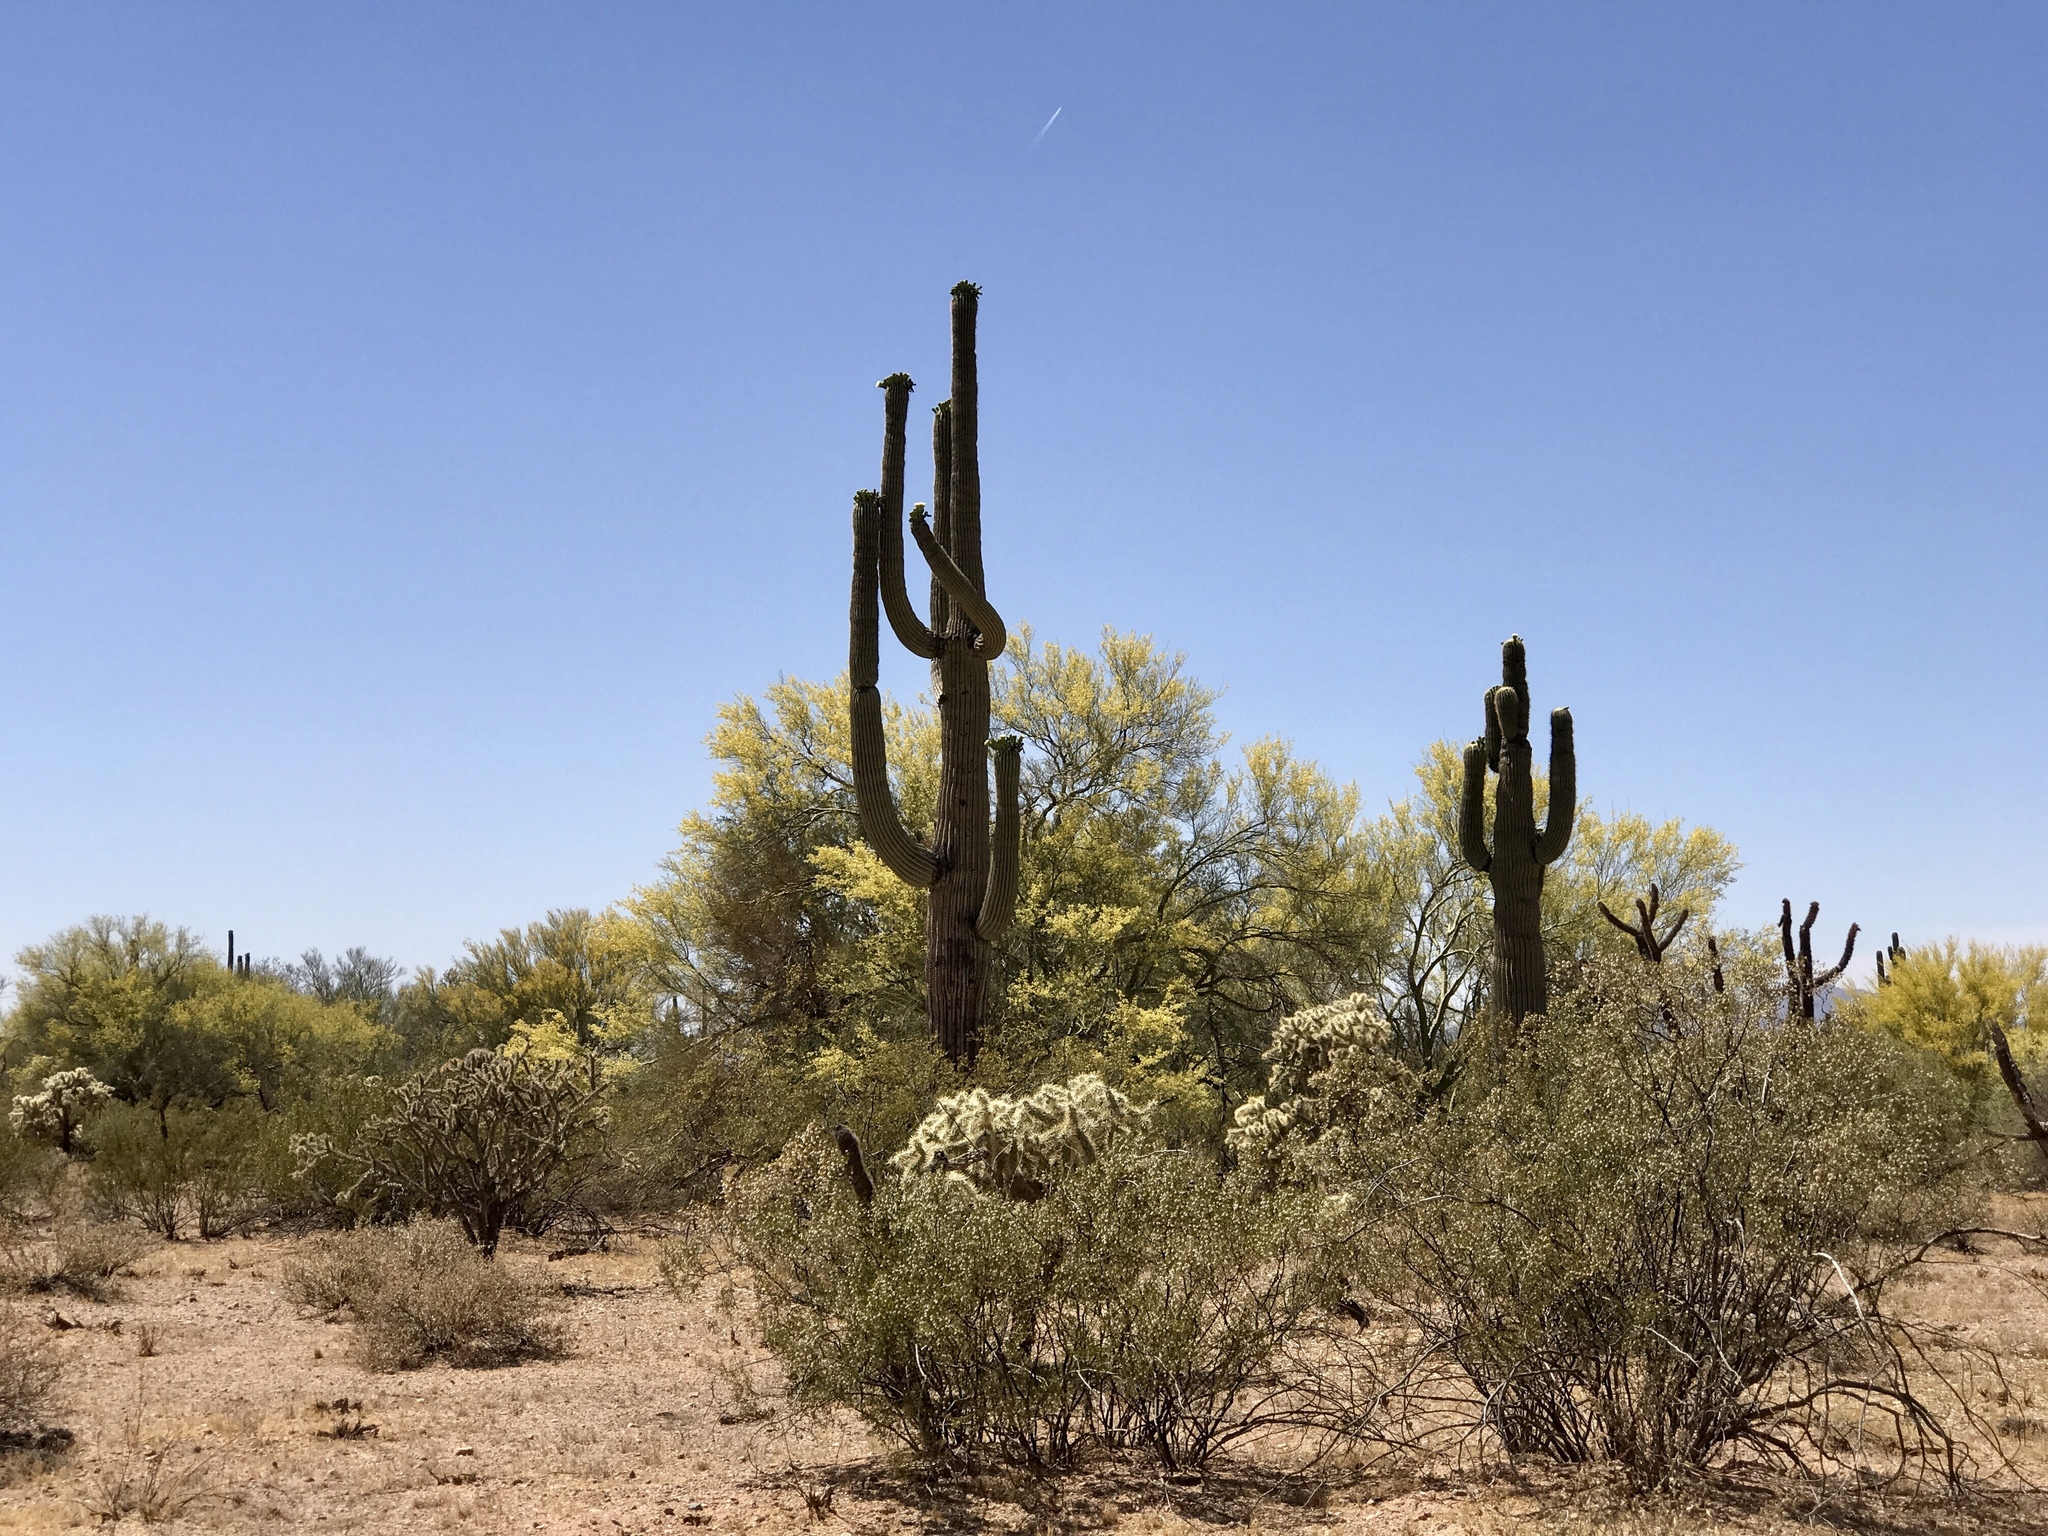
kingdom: Plantae
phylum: Tracheophyta
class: Magnoliopsida
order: Caryophyllales
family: Cactaceae
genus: Carnegiea
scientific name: Carnegiea gigantea
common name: Saguaro
